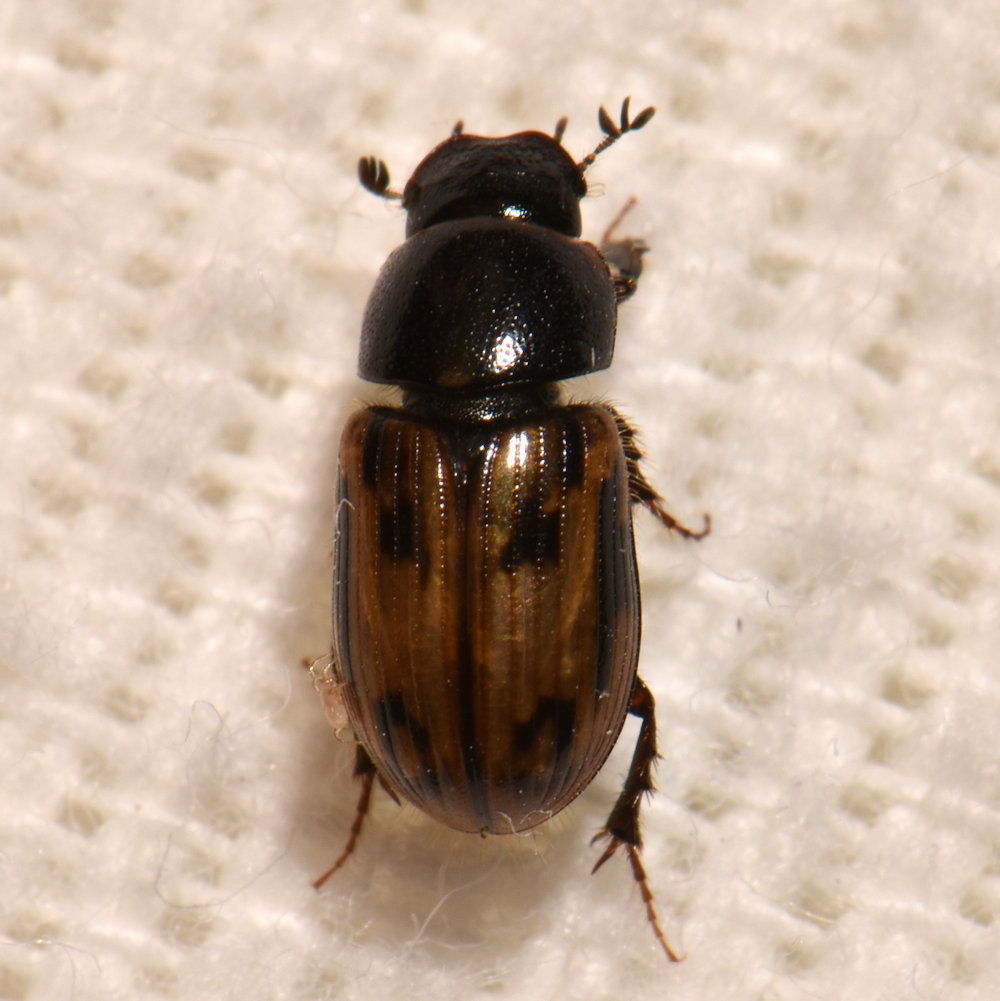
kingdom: Animalia
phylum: Arthropoda
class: Insecta
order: Coleoptera
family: Scarabaeidae
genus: Chilothorax
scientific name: Chilothorax distinctus
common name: Maculated dung beetle
